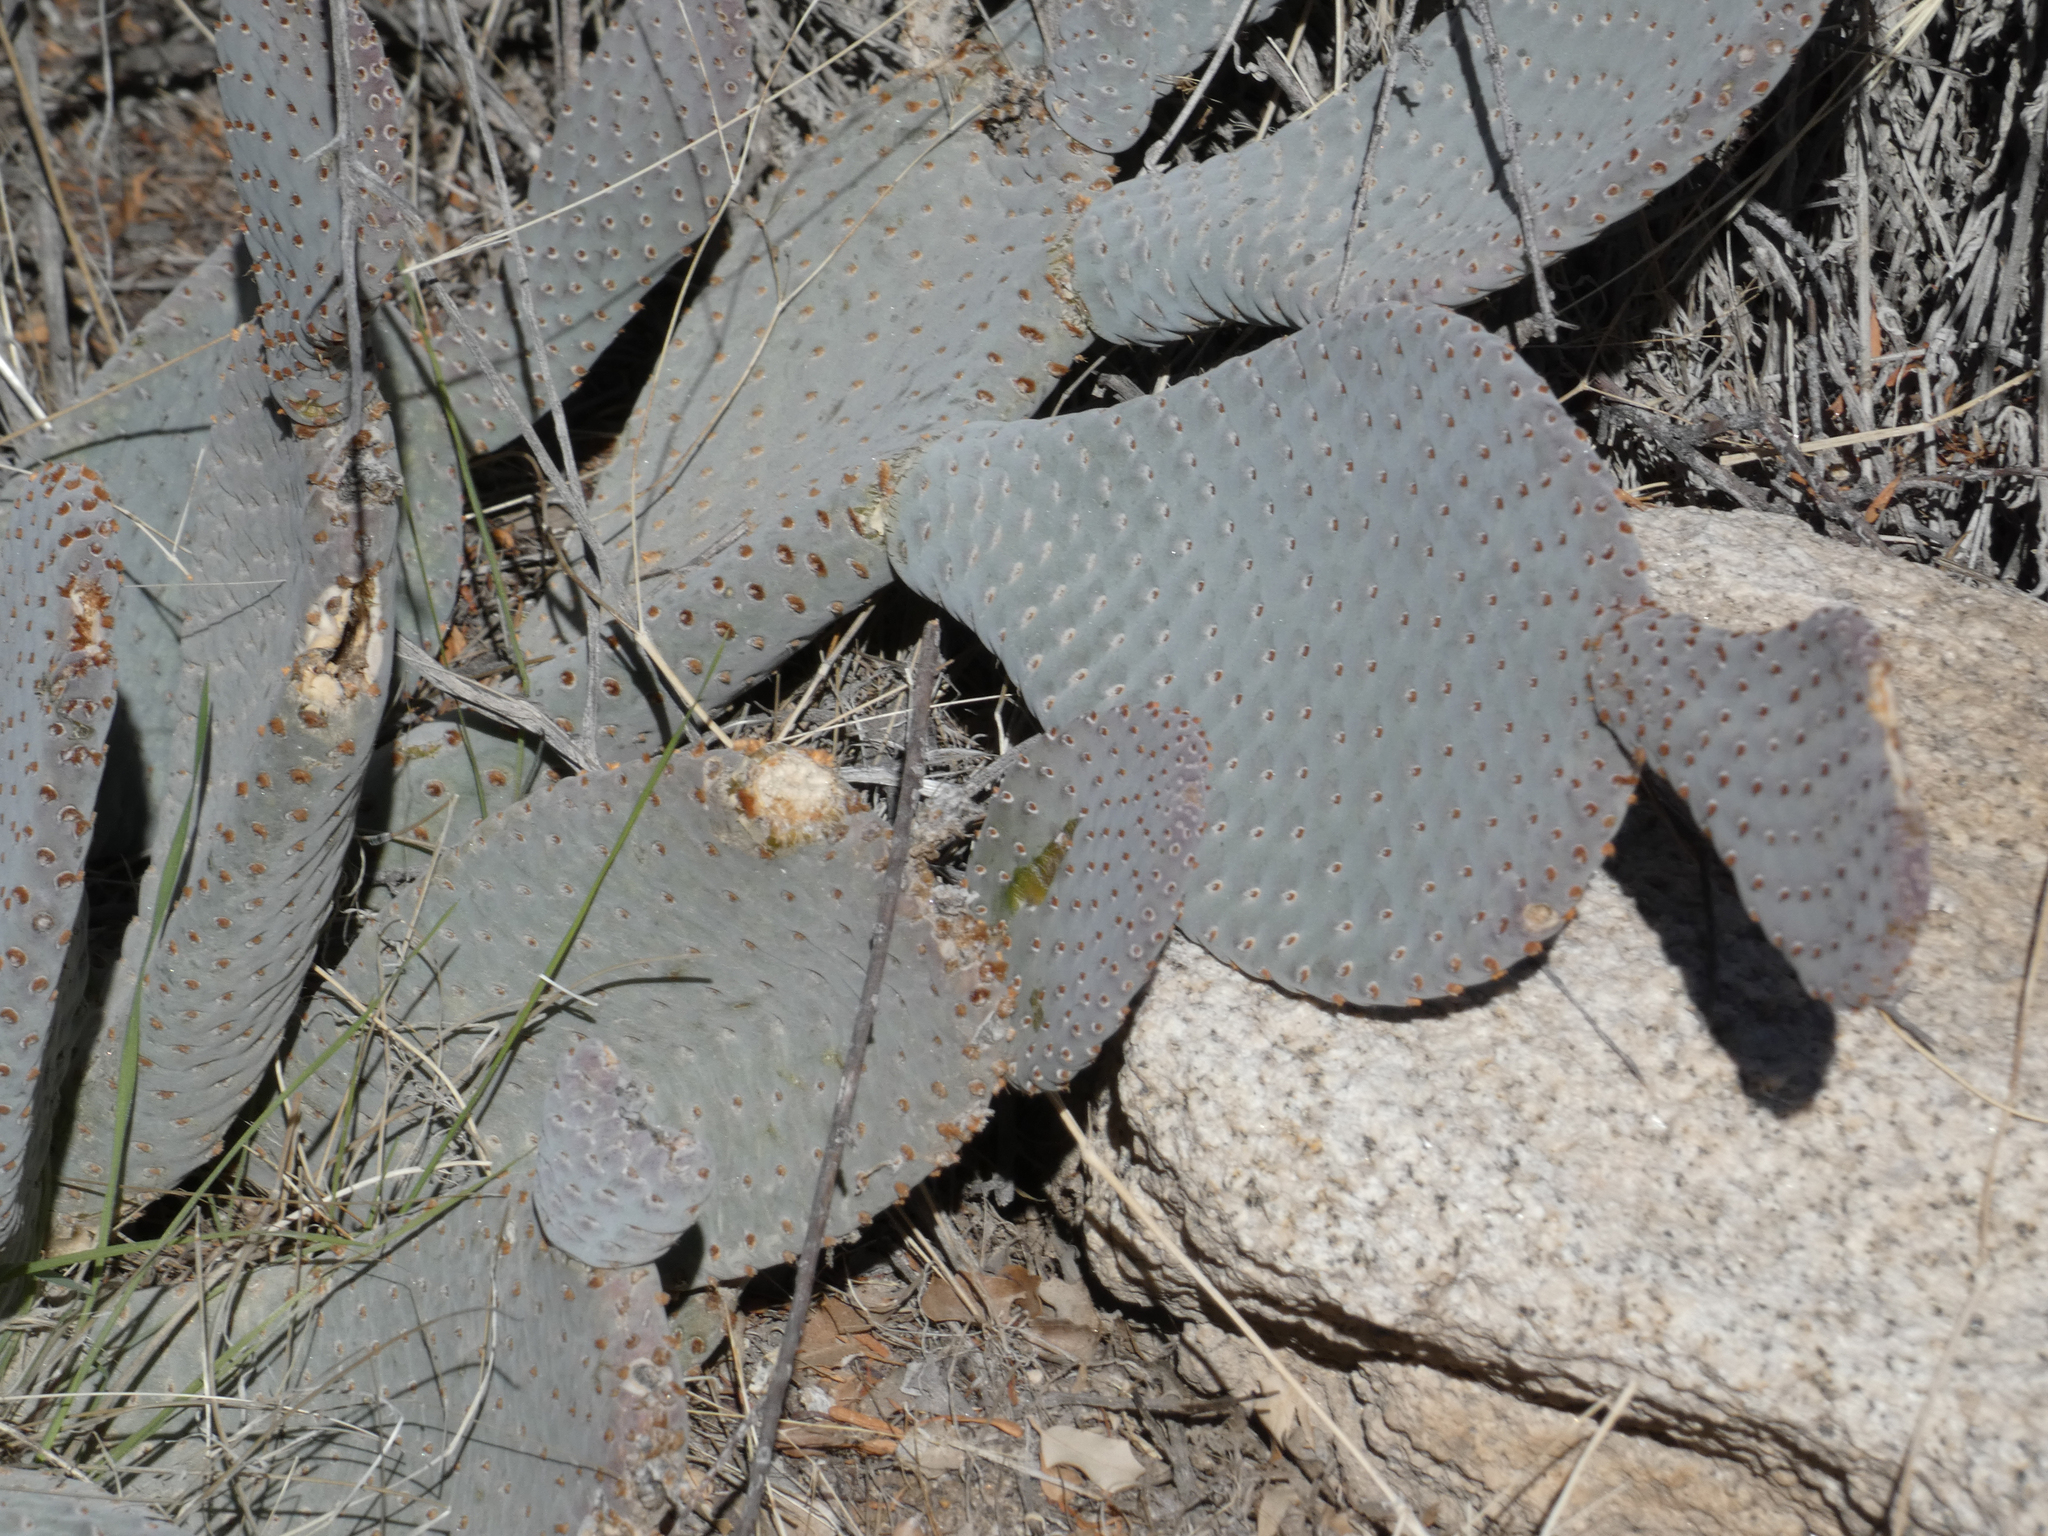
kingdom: Plantae
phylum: Tracheophyta
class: Magnoliopsida
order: Caryophyllales
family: Cactaceae
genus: Opuntia
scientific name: Opuntia basilaris
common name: Beavertail prickly-pear
